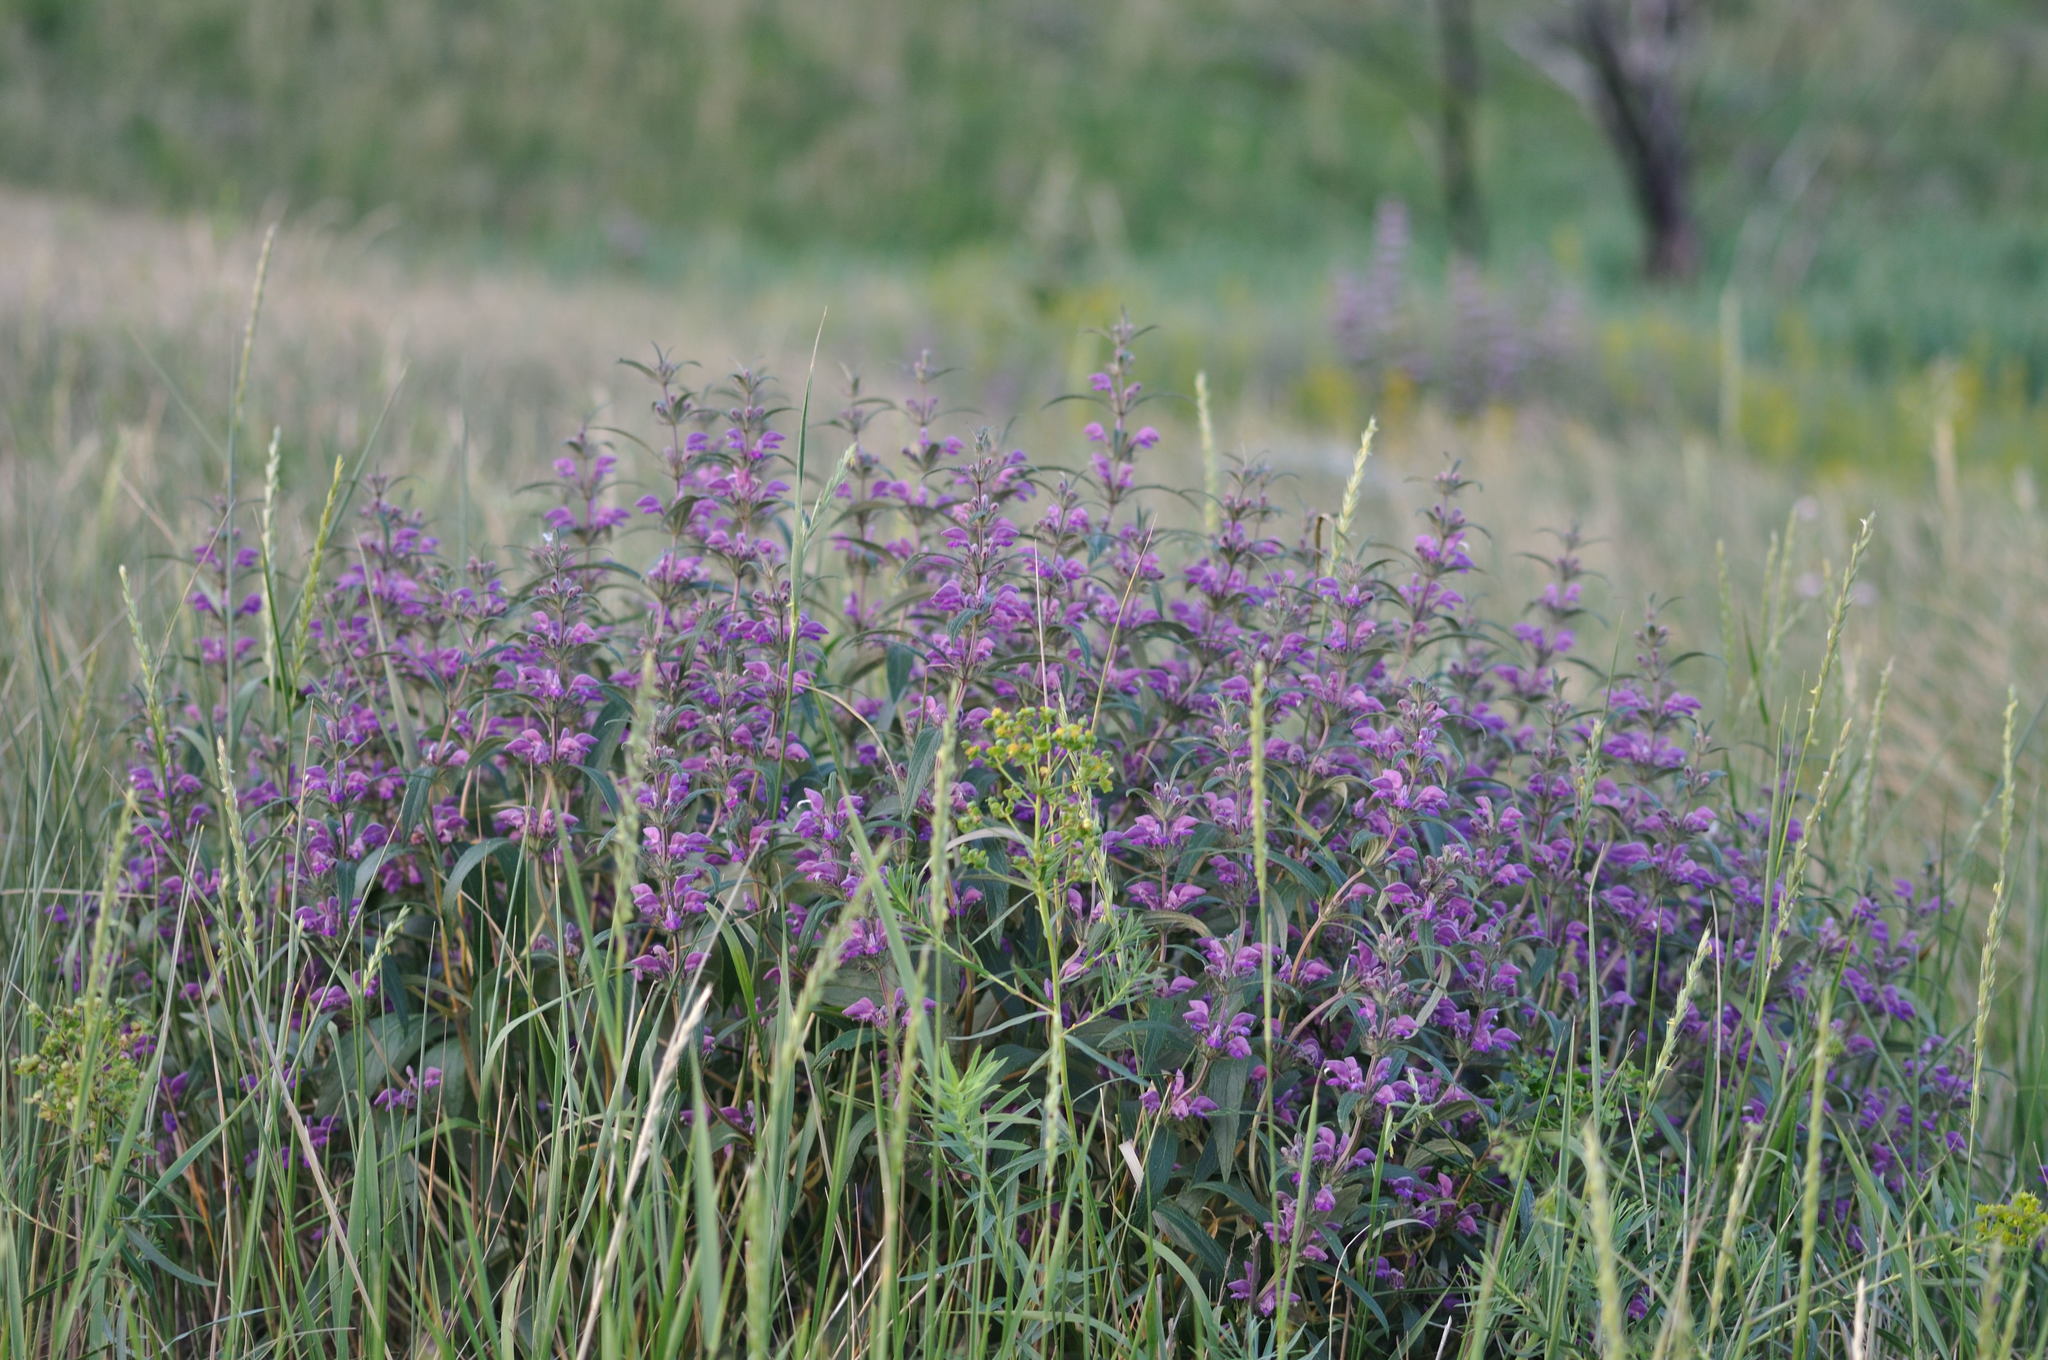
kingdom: Plantae
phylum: Tracheophyta
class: Magnoliopsida
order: Lamiales
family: Lamiaceae
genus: Phlomis
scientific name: Phlomis herba-venti
